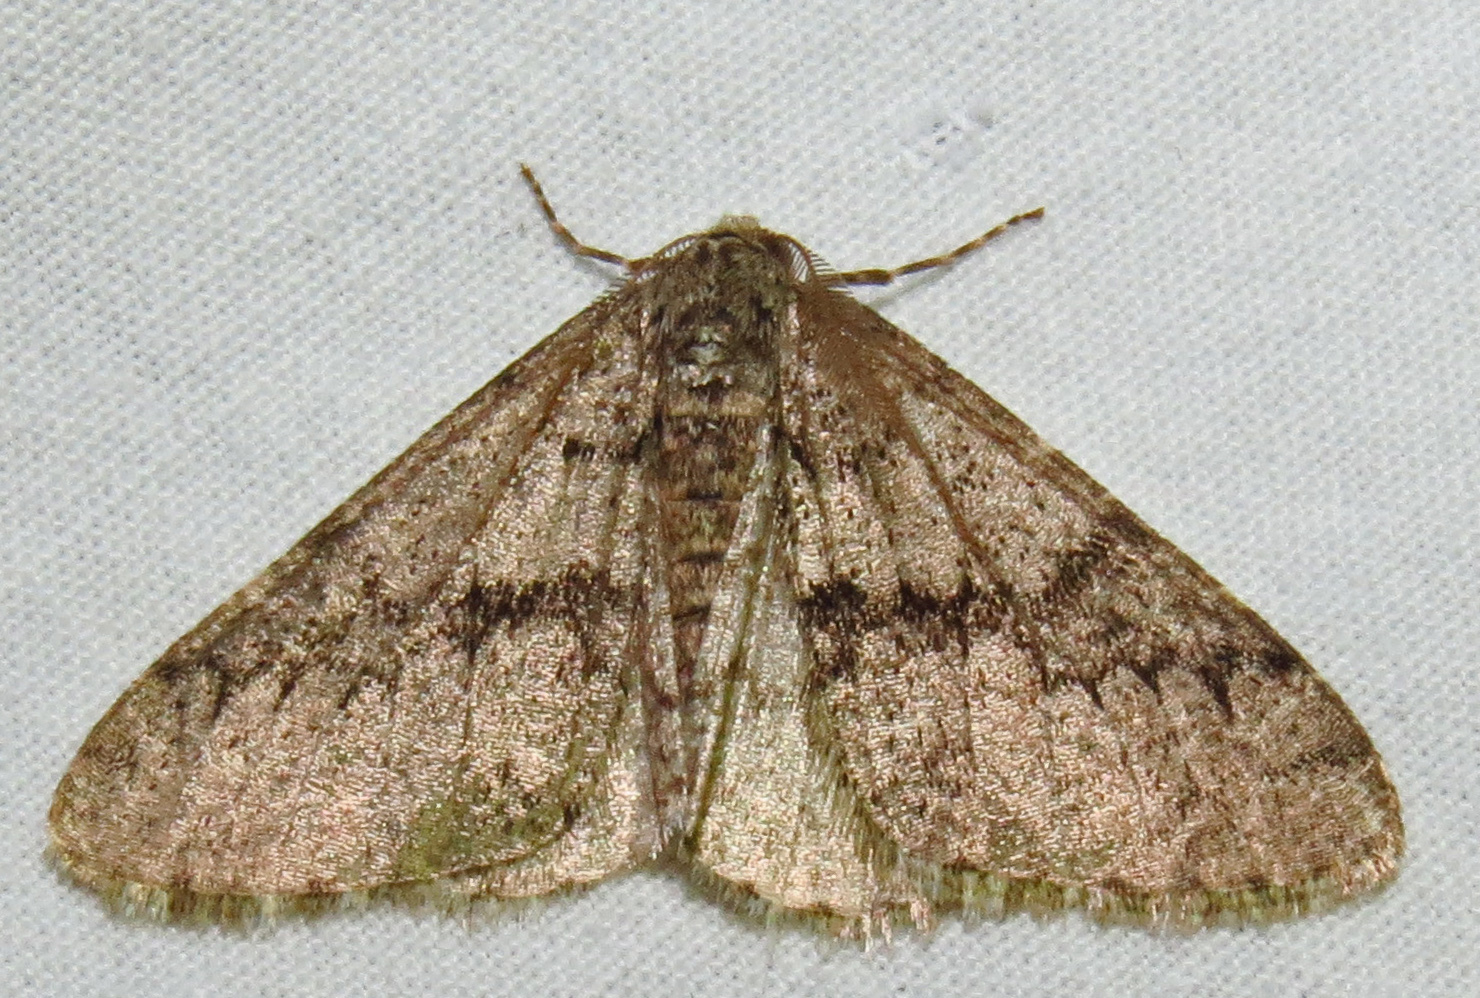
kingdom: Animalia
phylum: Arthropoda
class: Insecta
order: Lepidoptera
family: Geometridae
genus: Phigalia
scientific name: Phigalia denticulata
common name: Toothed phigalia
